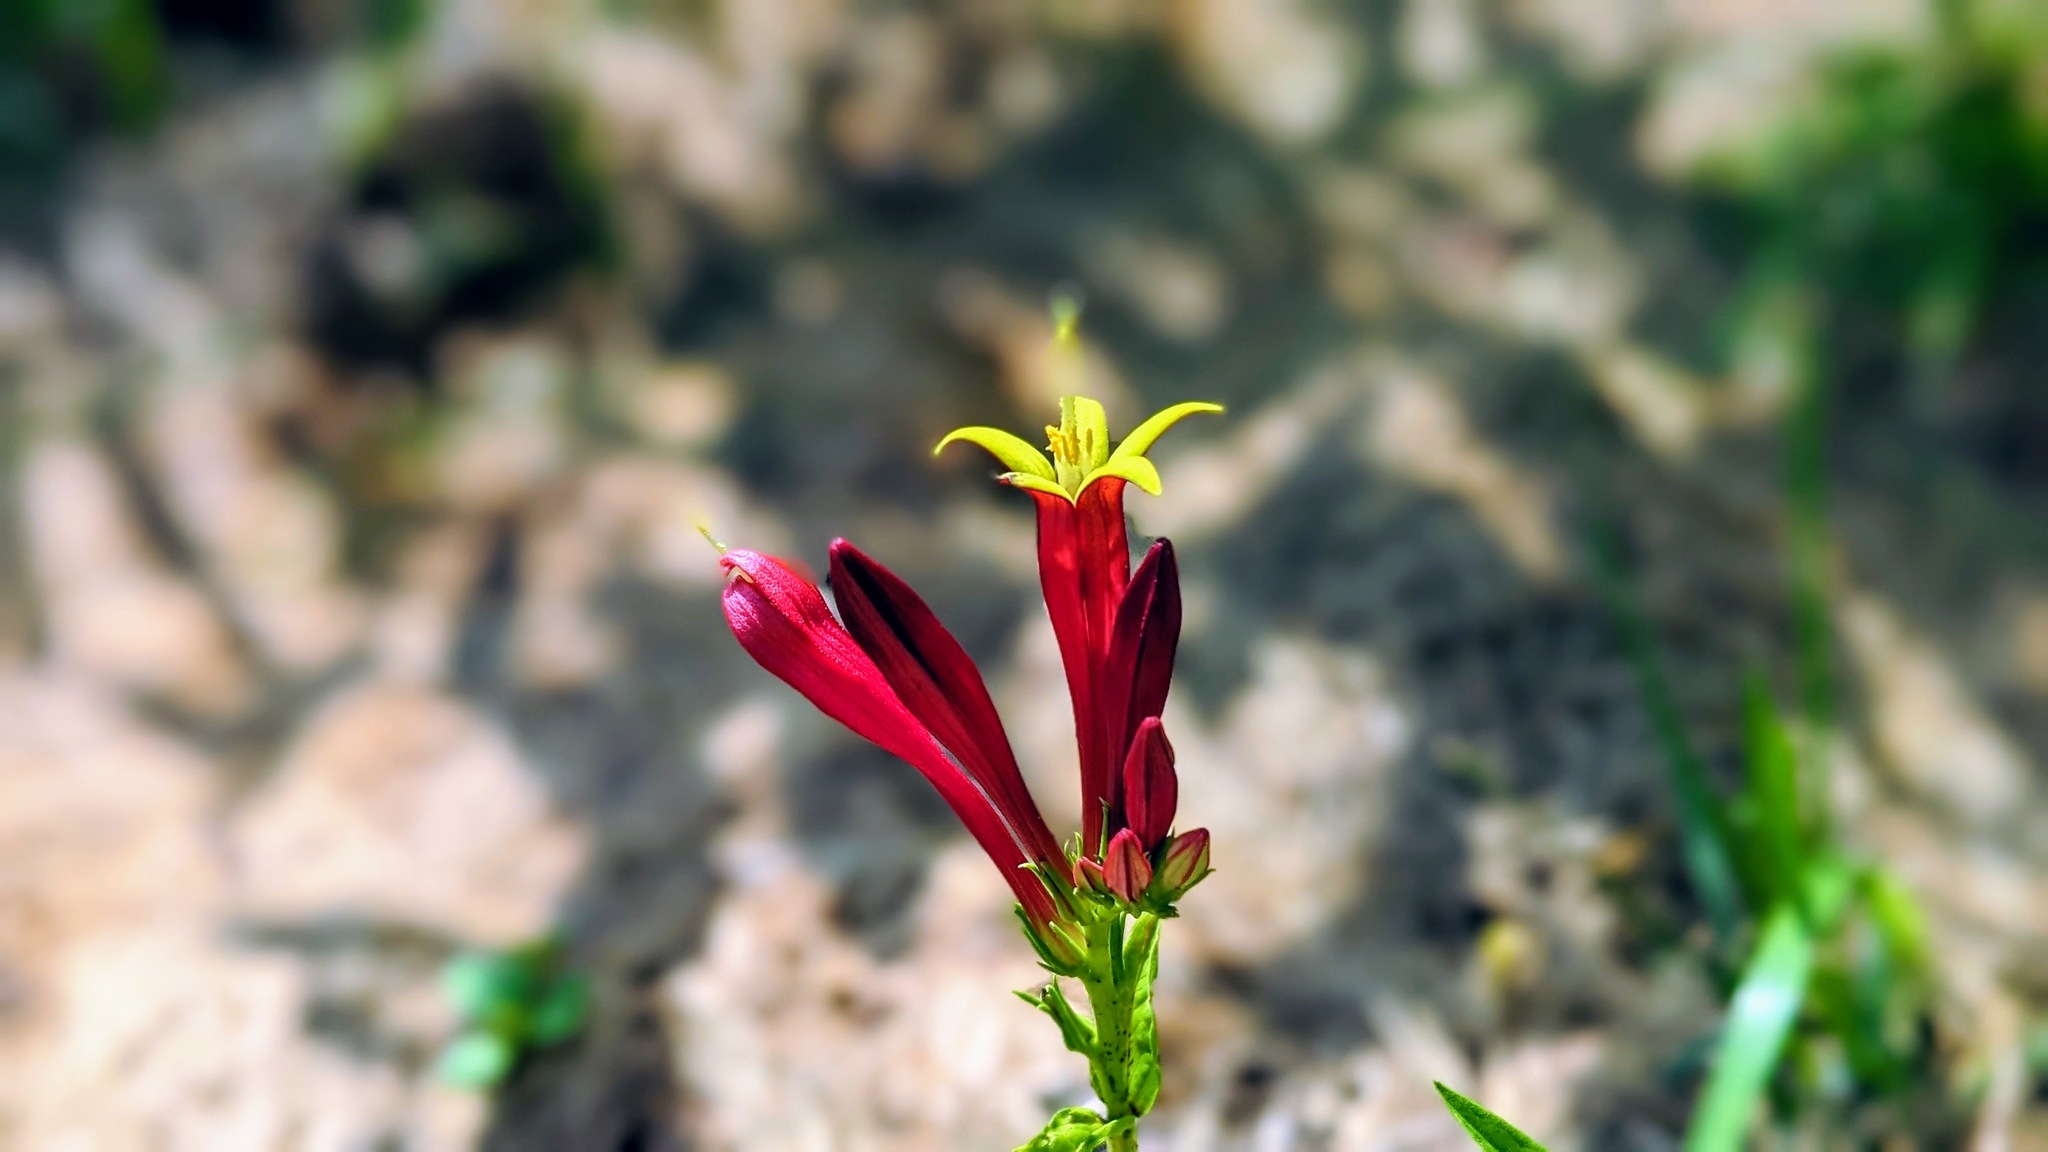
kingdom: Plantae
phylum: Tracheophyta
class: Magnoliopsida
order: Gentianales
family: Loganiaceae
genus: Spigelia
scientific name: Spigelia marilandica
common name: Indian-pink
